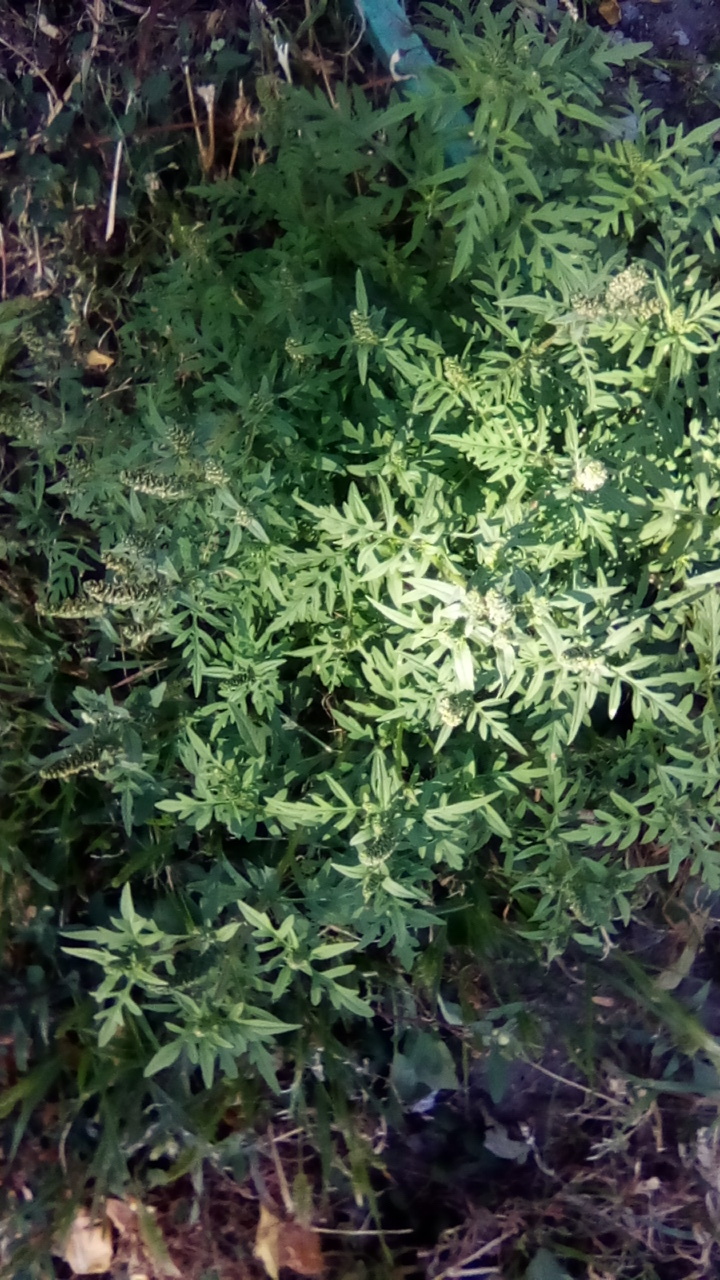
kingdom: Plantae
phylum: Tracheophyta
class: Magnoliopsida
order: Asterales
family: Asteraceae
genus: Ambrosia
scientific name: Ambrosia artemisiifolia
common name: Annual ragweed
